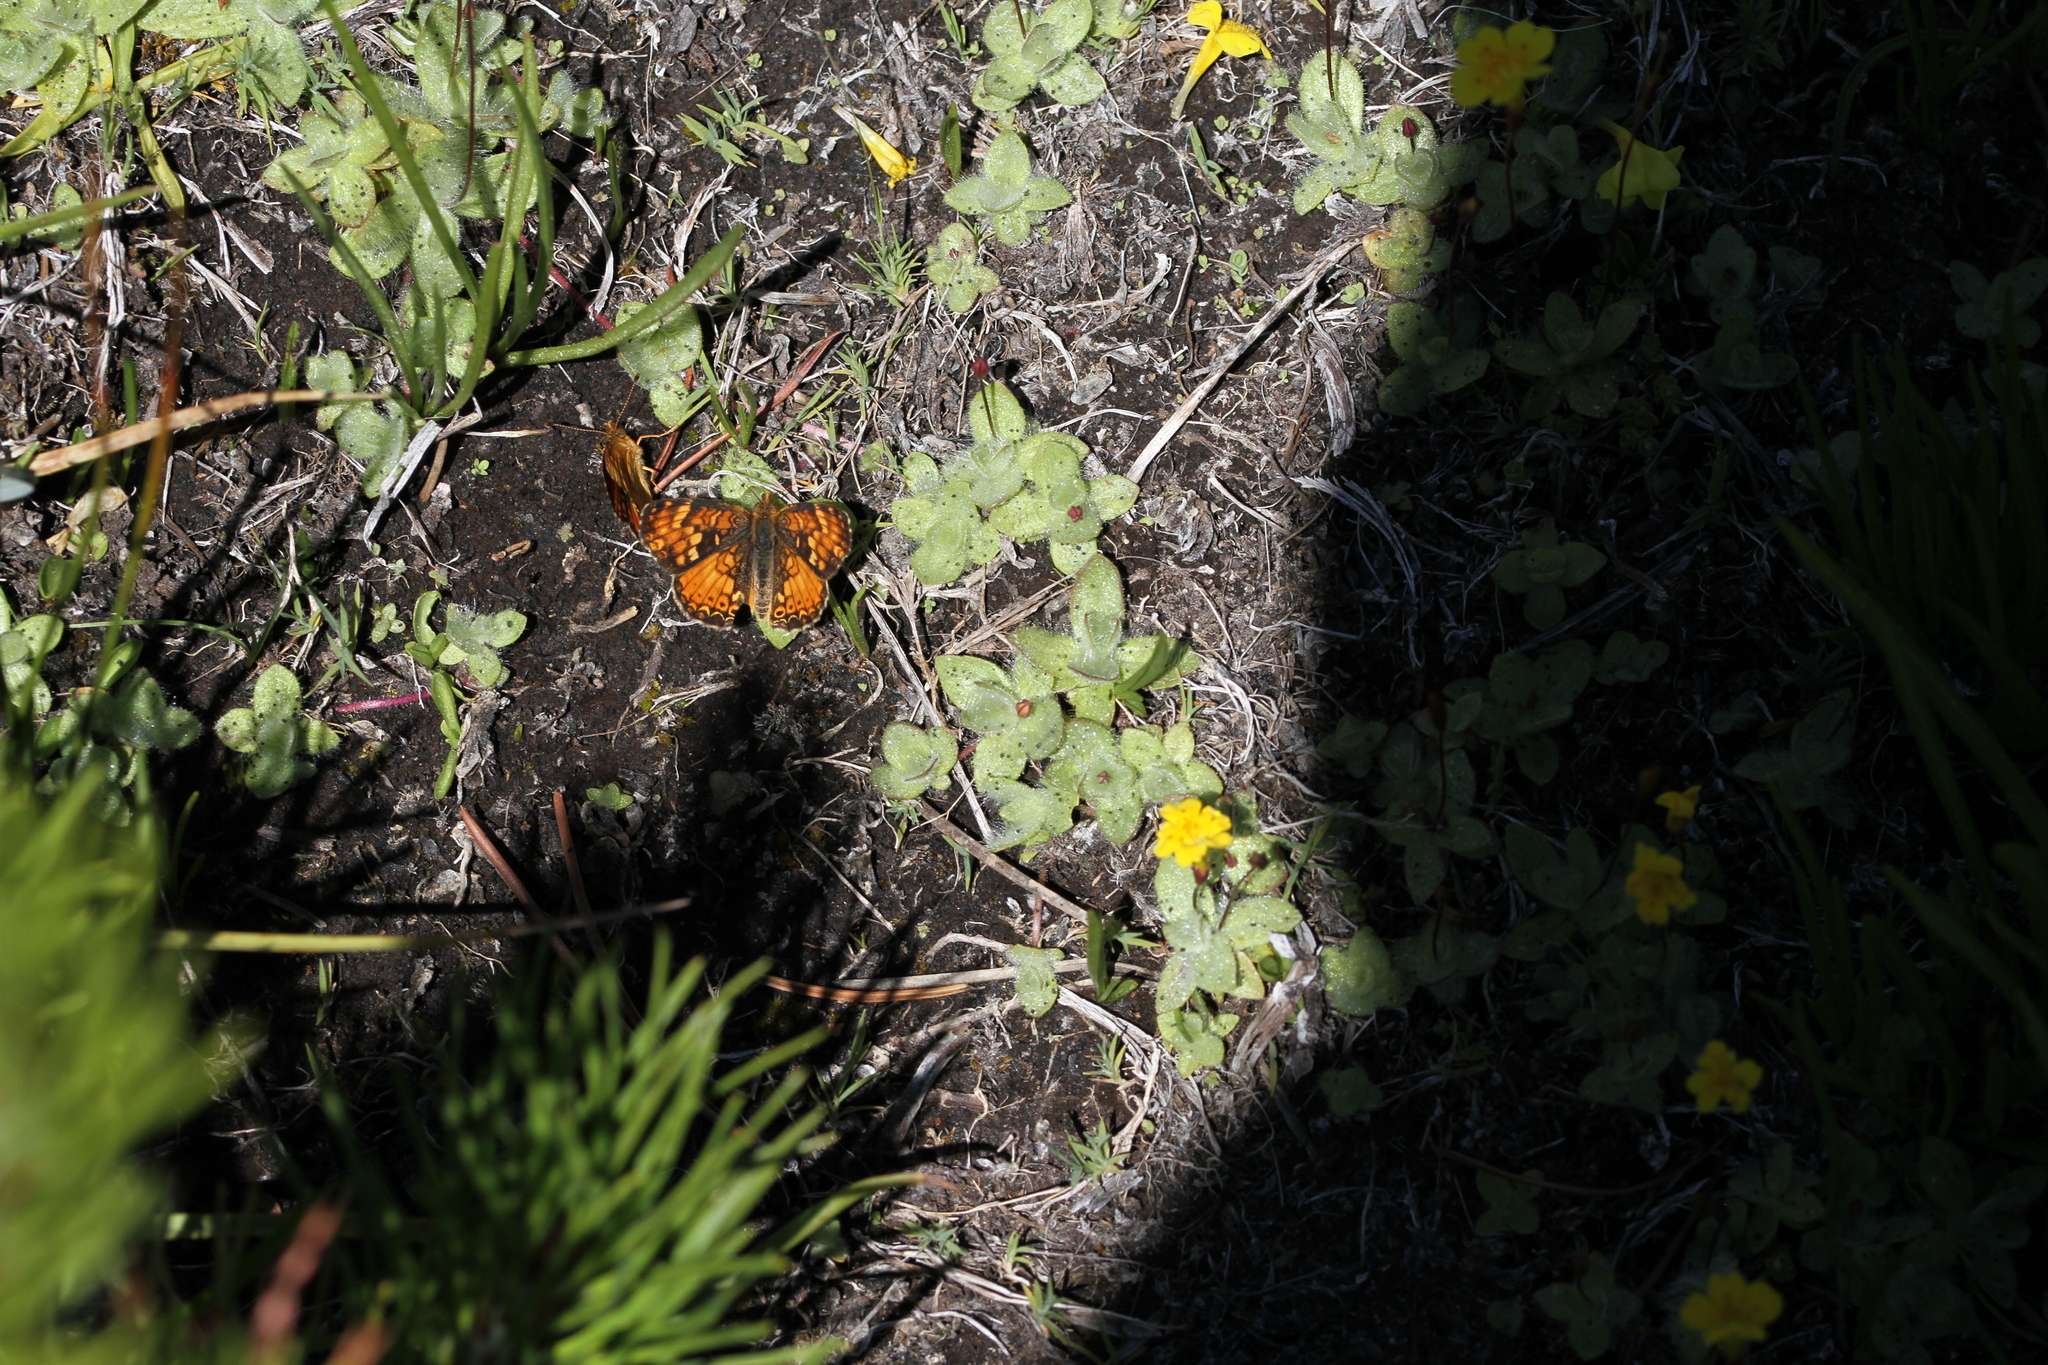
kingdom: Animalia
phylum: Arthropoda
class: Insecta
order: Lepidoptera
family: Nymphalidae
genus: Phyciodes
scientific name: Phyciodes tharos
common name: Pearl crescent
